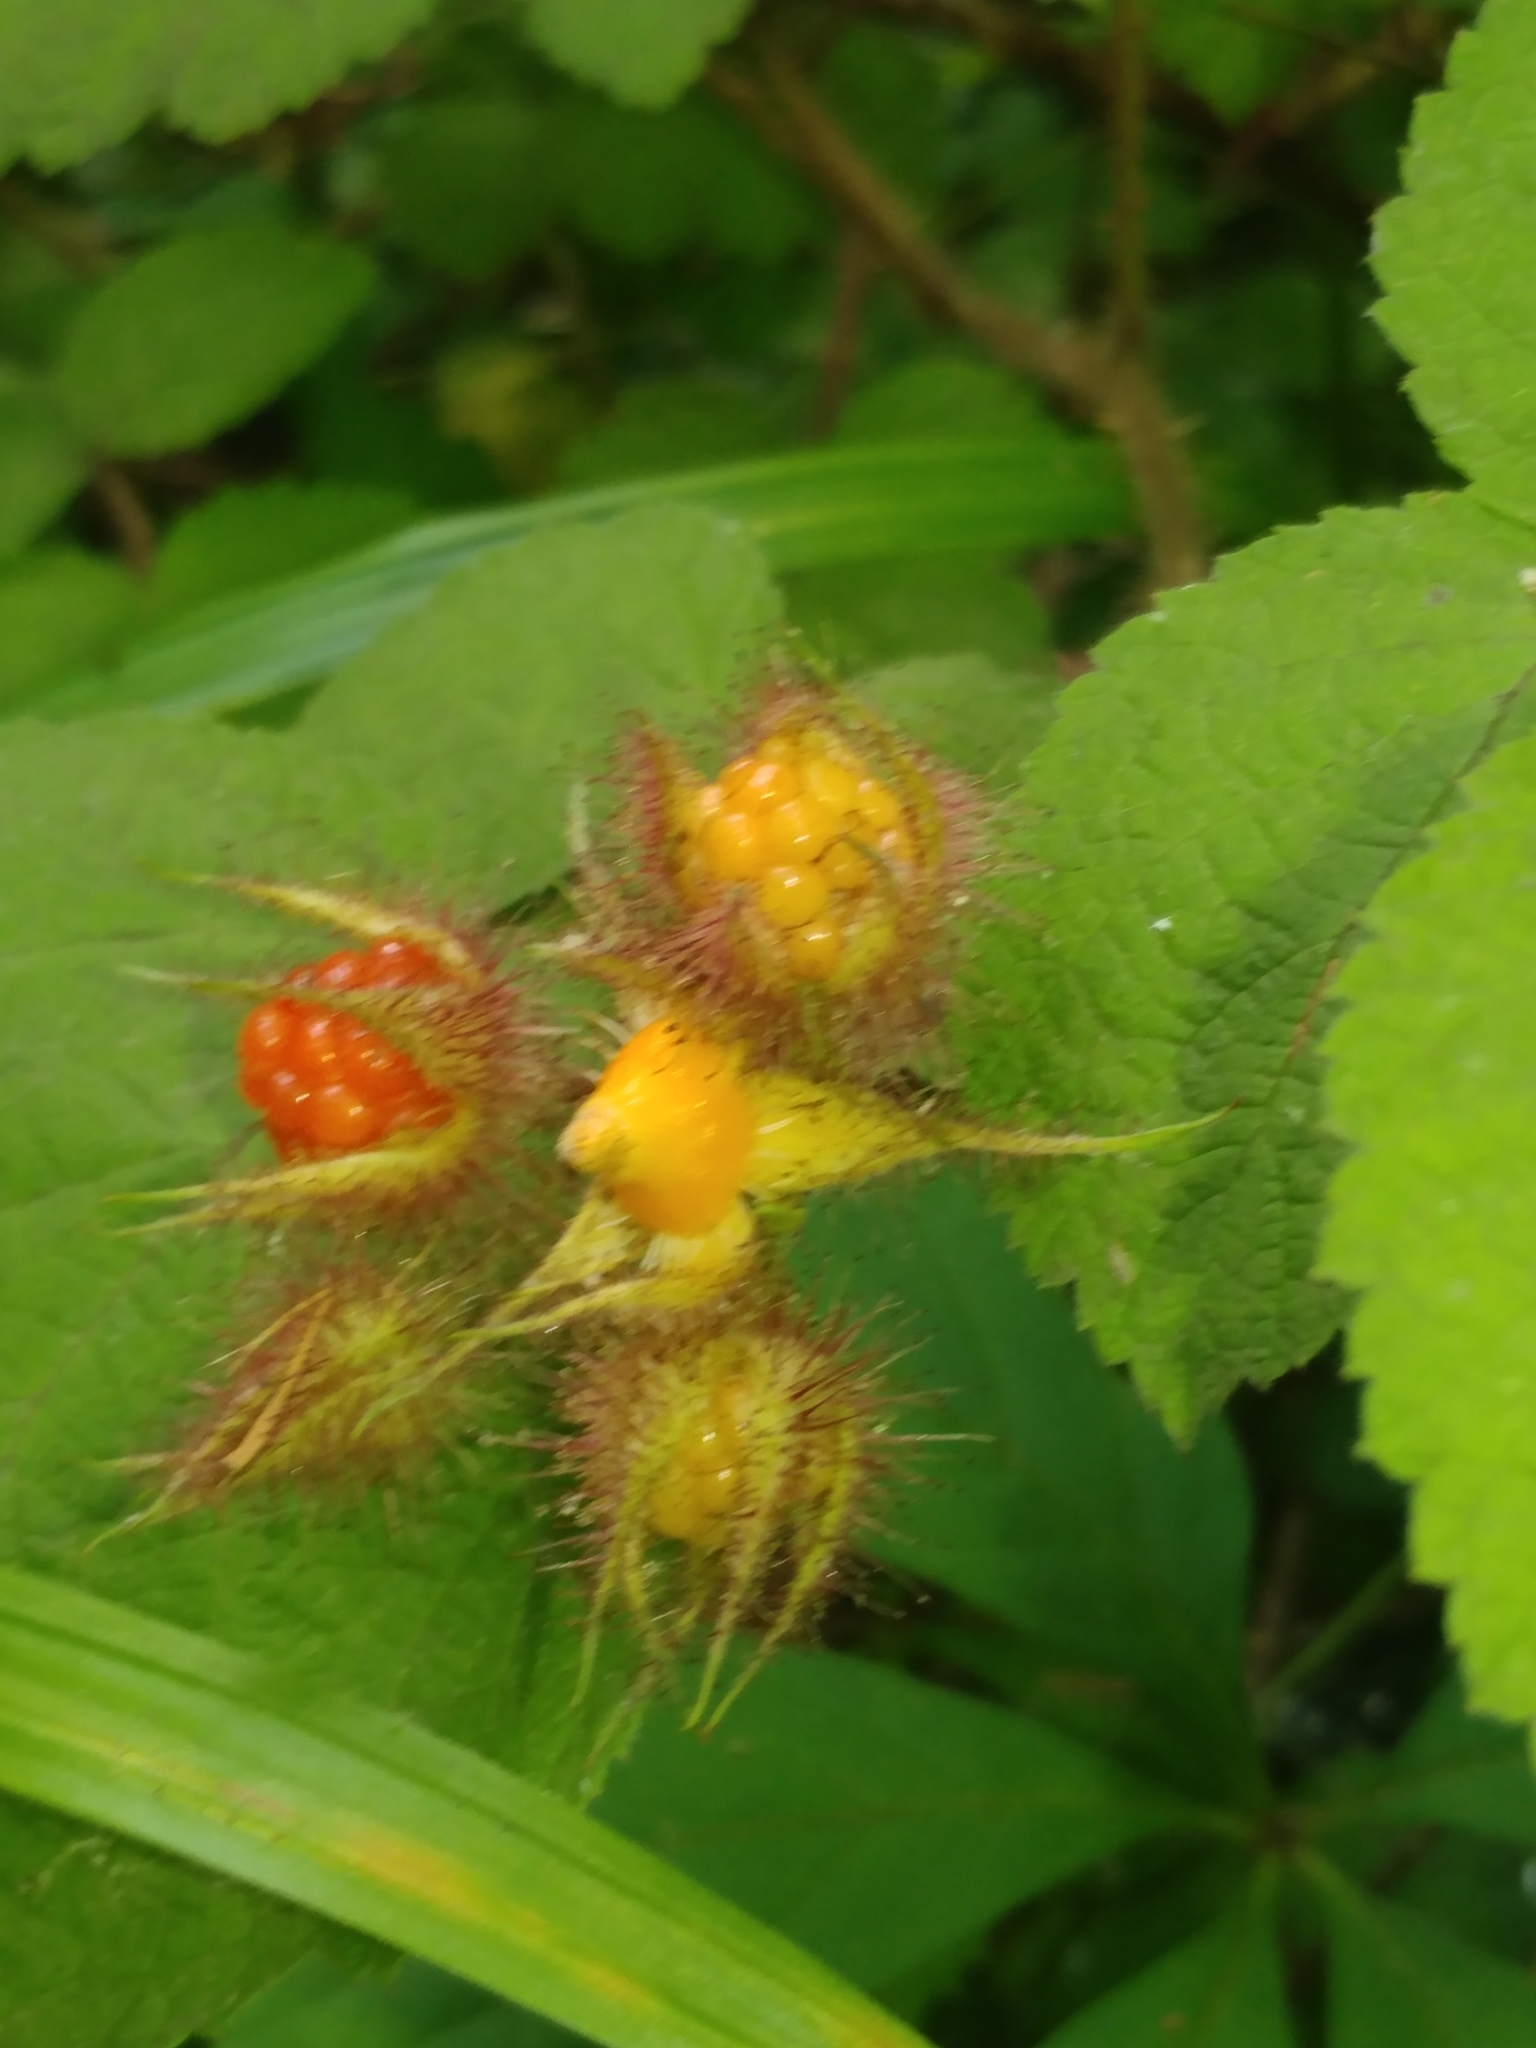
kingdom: Plantae
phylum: Tracheophyta
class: Magnoliopsida
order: Rosales
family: Rosaceae
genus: Rubus
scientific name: Rubus phoenicolasius
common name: Japanese wineberry
